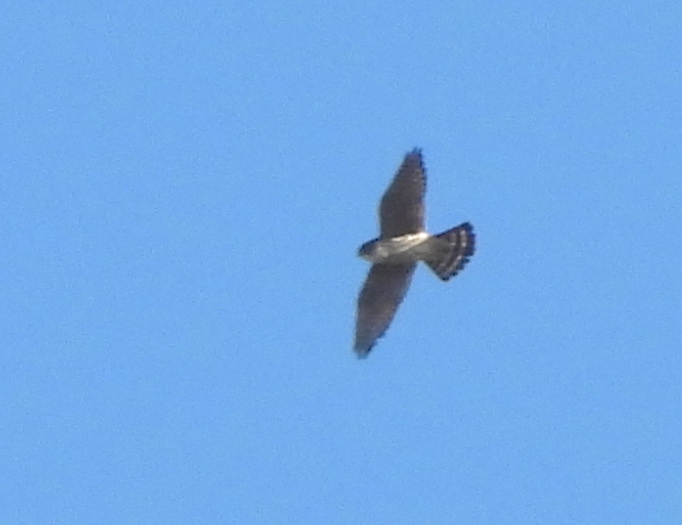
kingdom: Animalia
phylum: Chordata
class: Aves
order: Falconiformes
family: Falconidae
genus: Falco
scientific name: Falco columbarius
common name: Merlin
